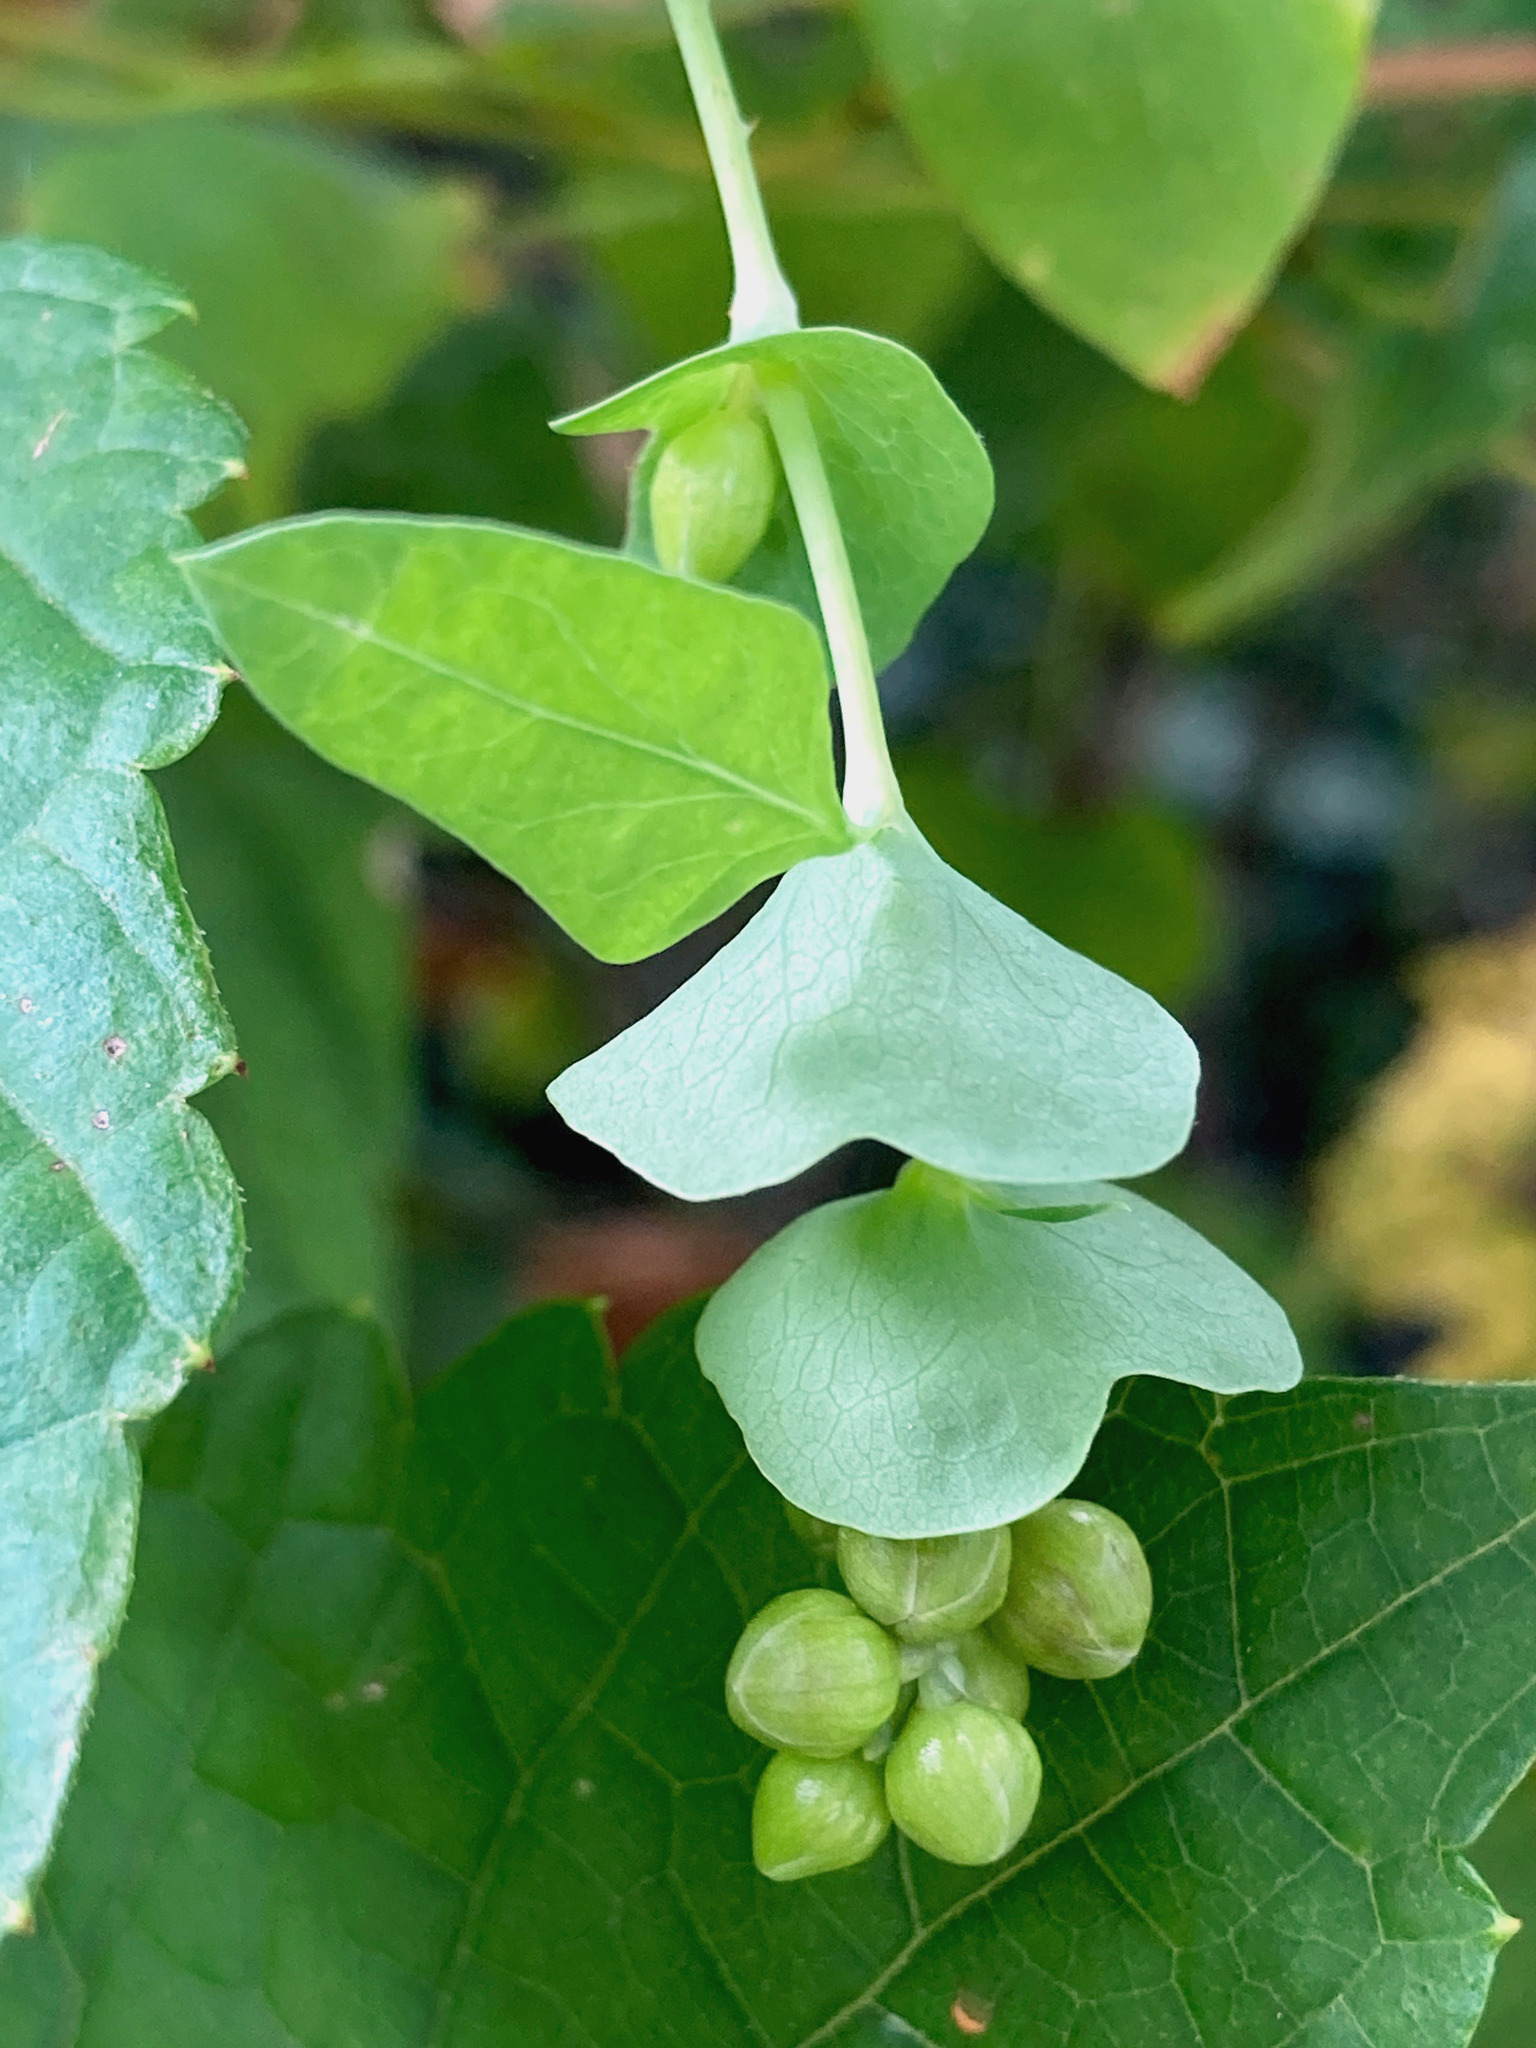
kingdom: Plantae
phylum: Tracheophyta
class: Magnoliopsida
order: Caryophyllales
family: Polygonaceae
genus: Persicaria
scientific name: Persicaria perfoliata
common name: Asiatic tearthumb
